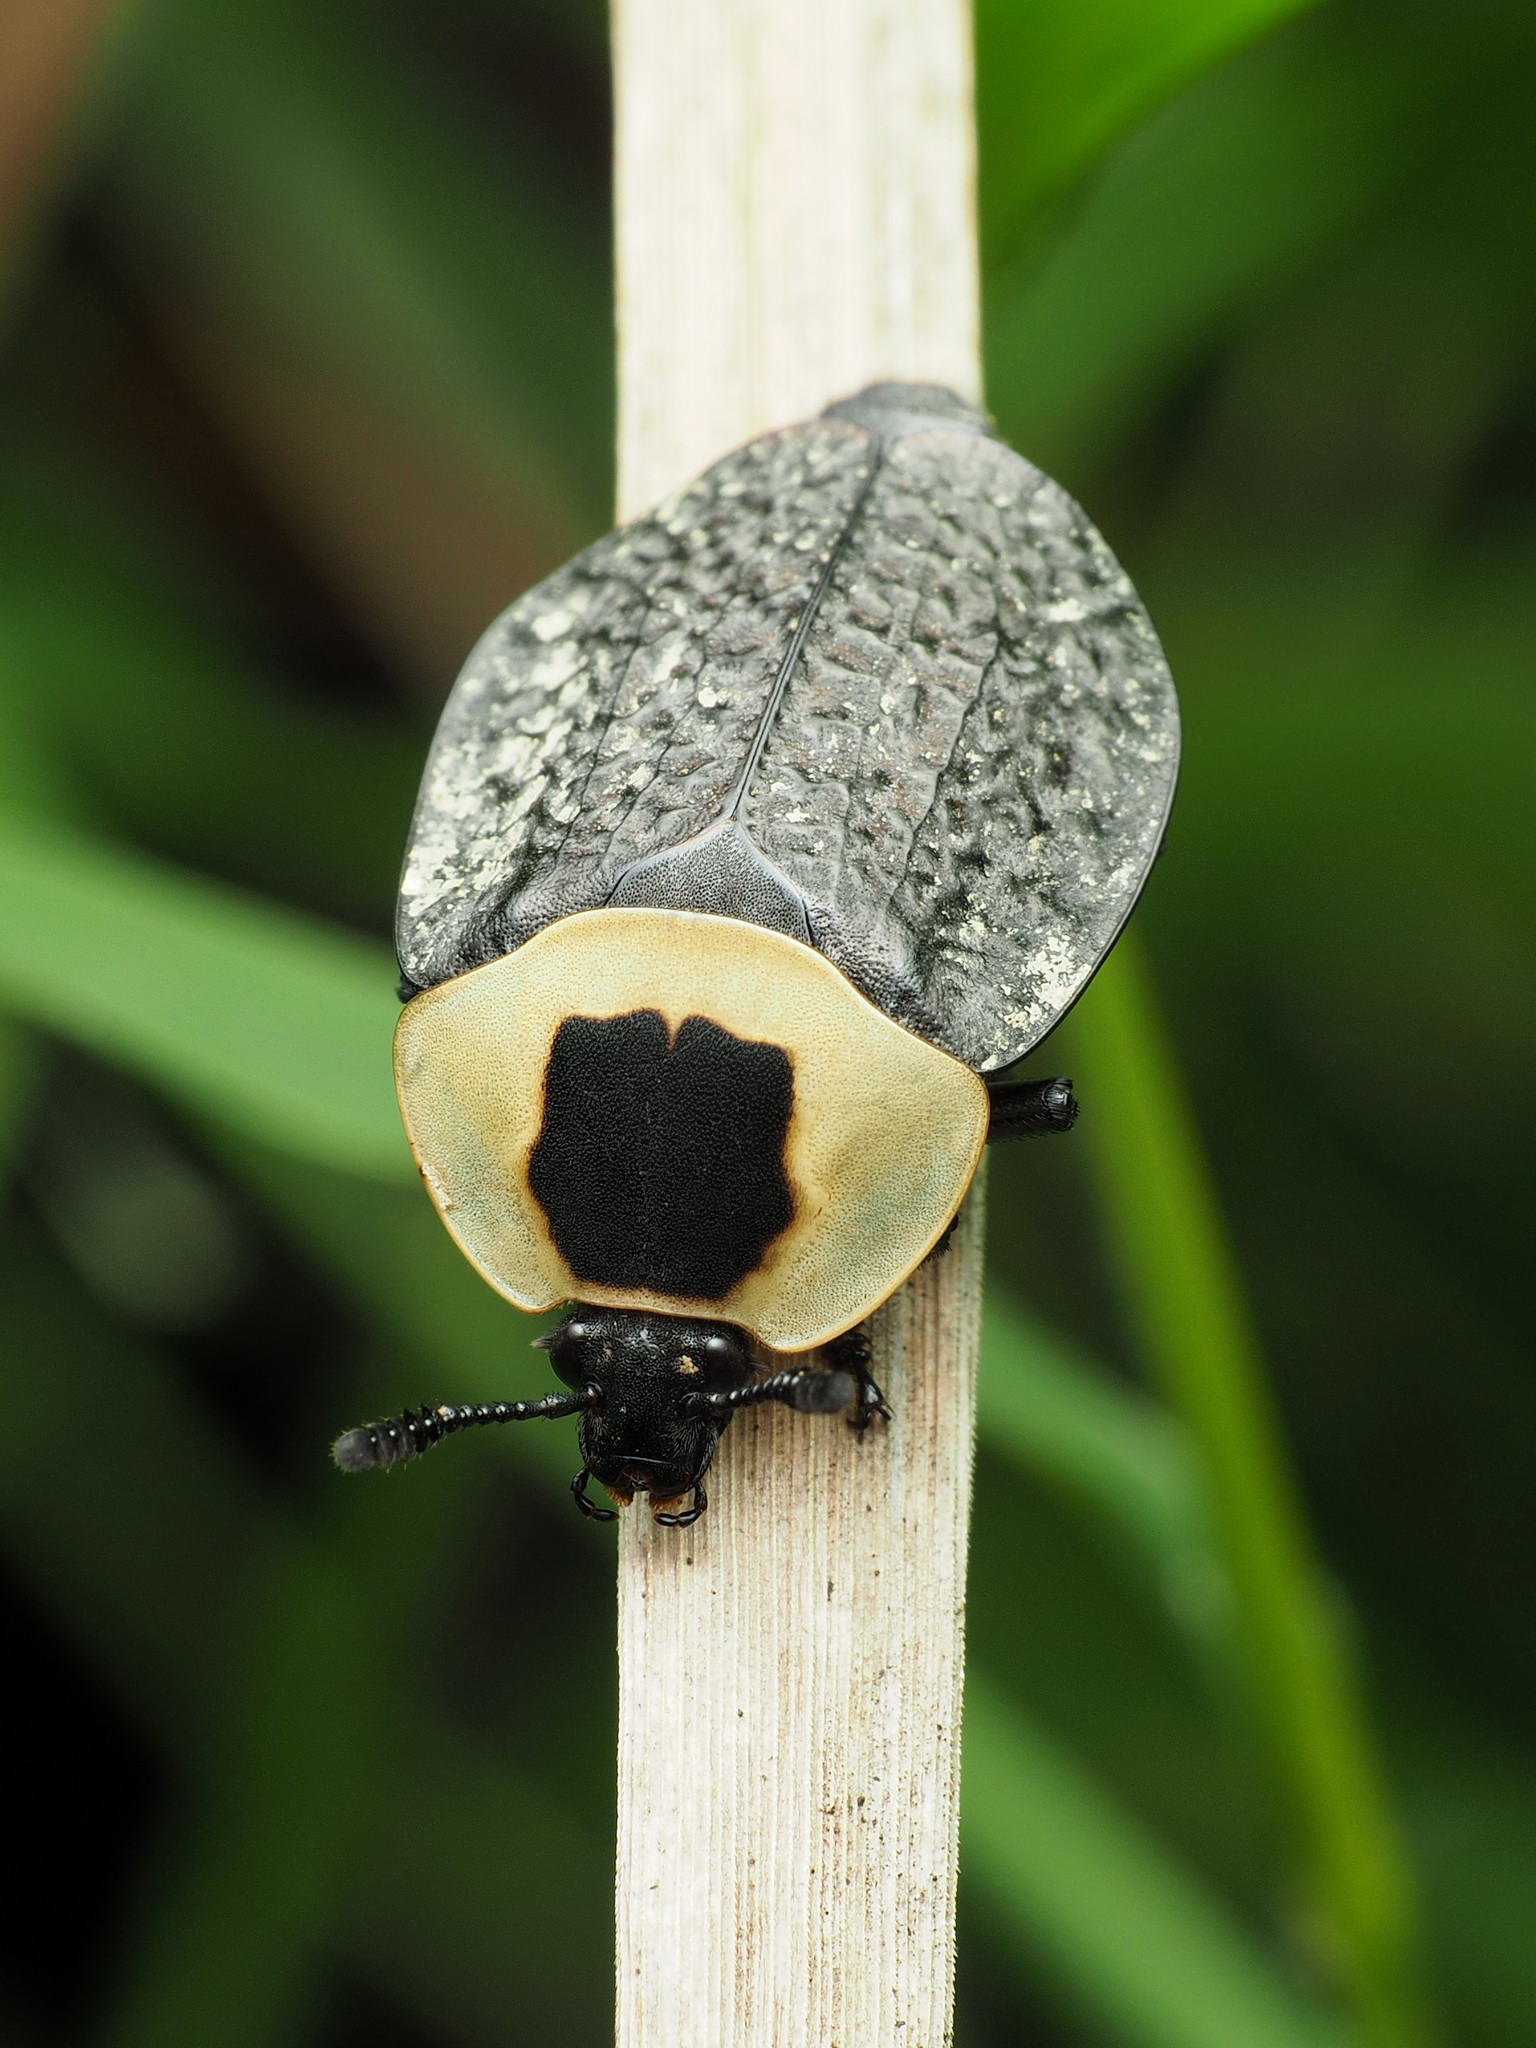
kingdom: Animalia
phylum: Arthropoda
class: Insecta
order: Coleoptera
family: Staphylinidae
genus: Necrophila
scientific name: Necrophila americana
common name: American carrion beetle
